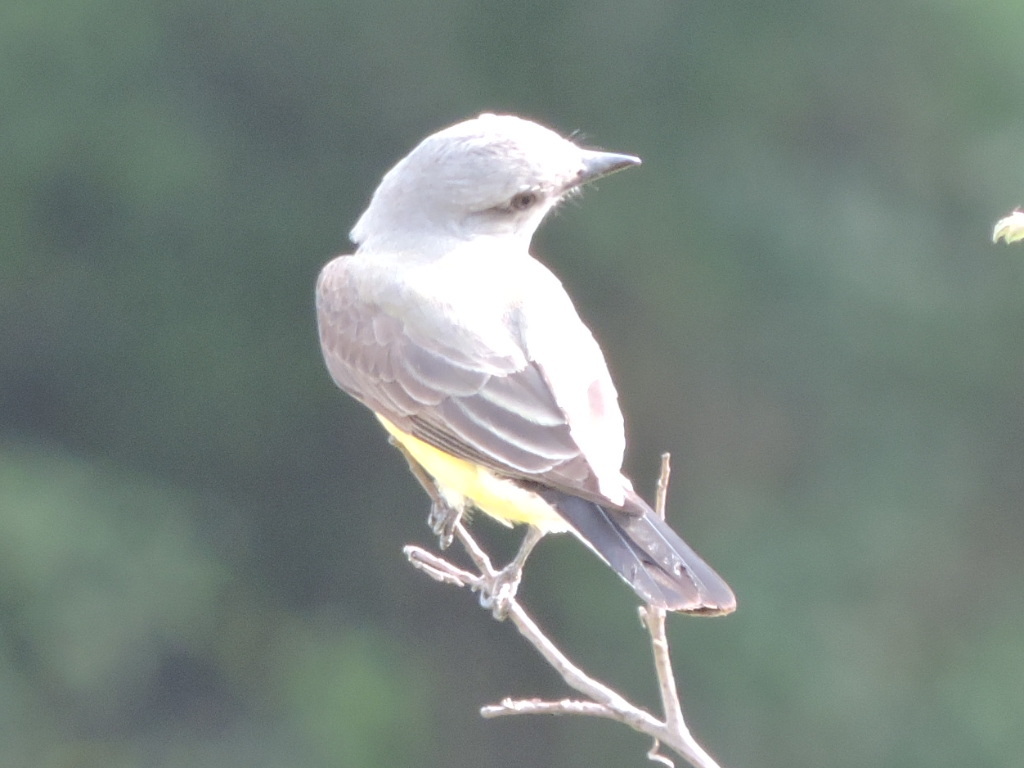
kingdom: Animalia
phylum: Chordata
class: Aves
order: Passeriformes
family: Tyrannidae
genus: Tyrannus
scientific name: Tyrannus verticalis
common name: Western kingbird
